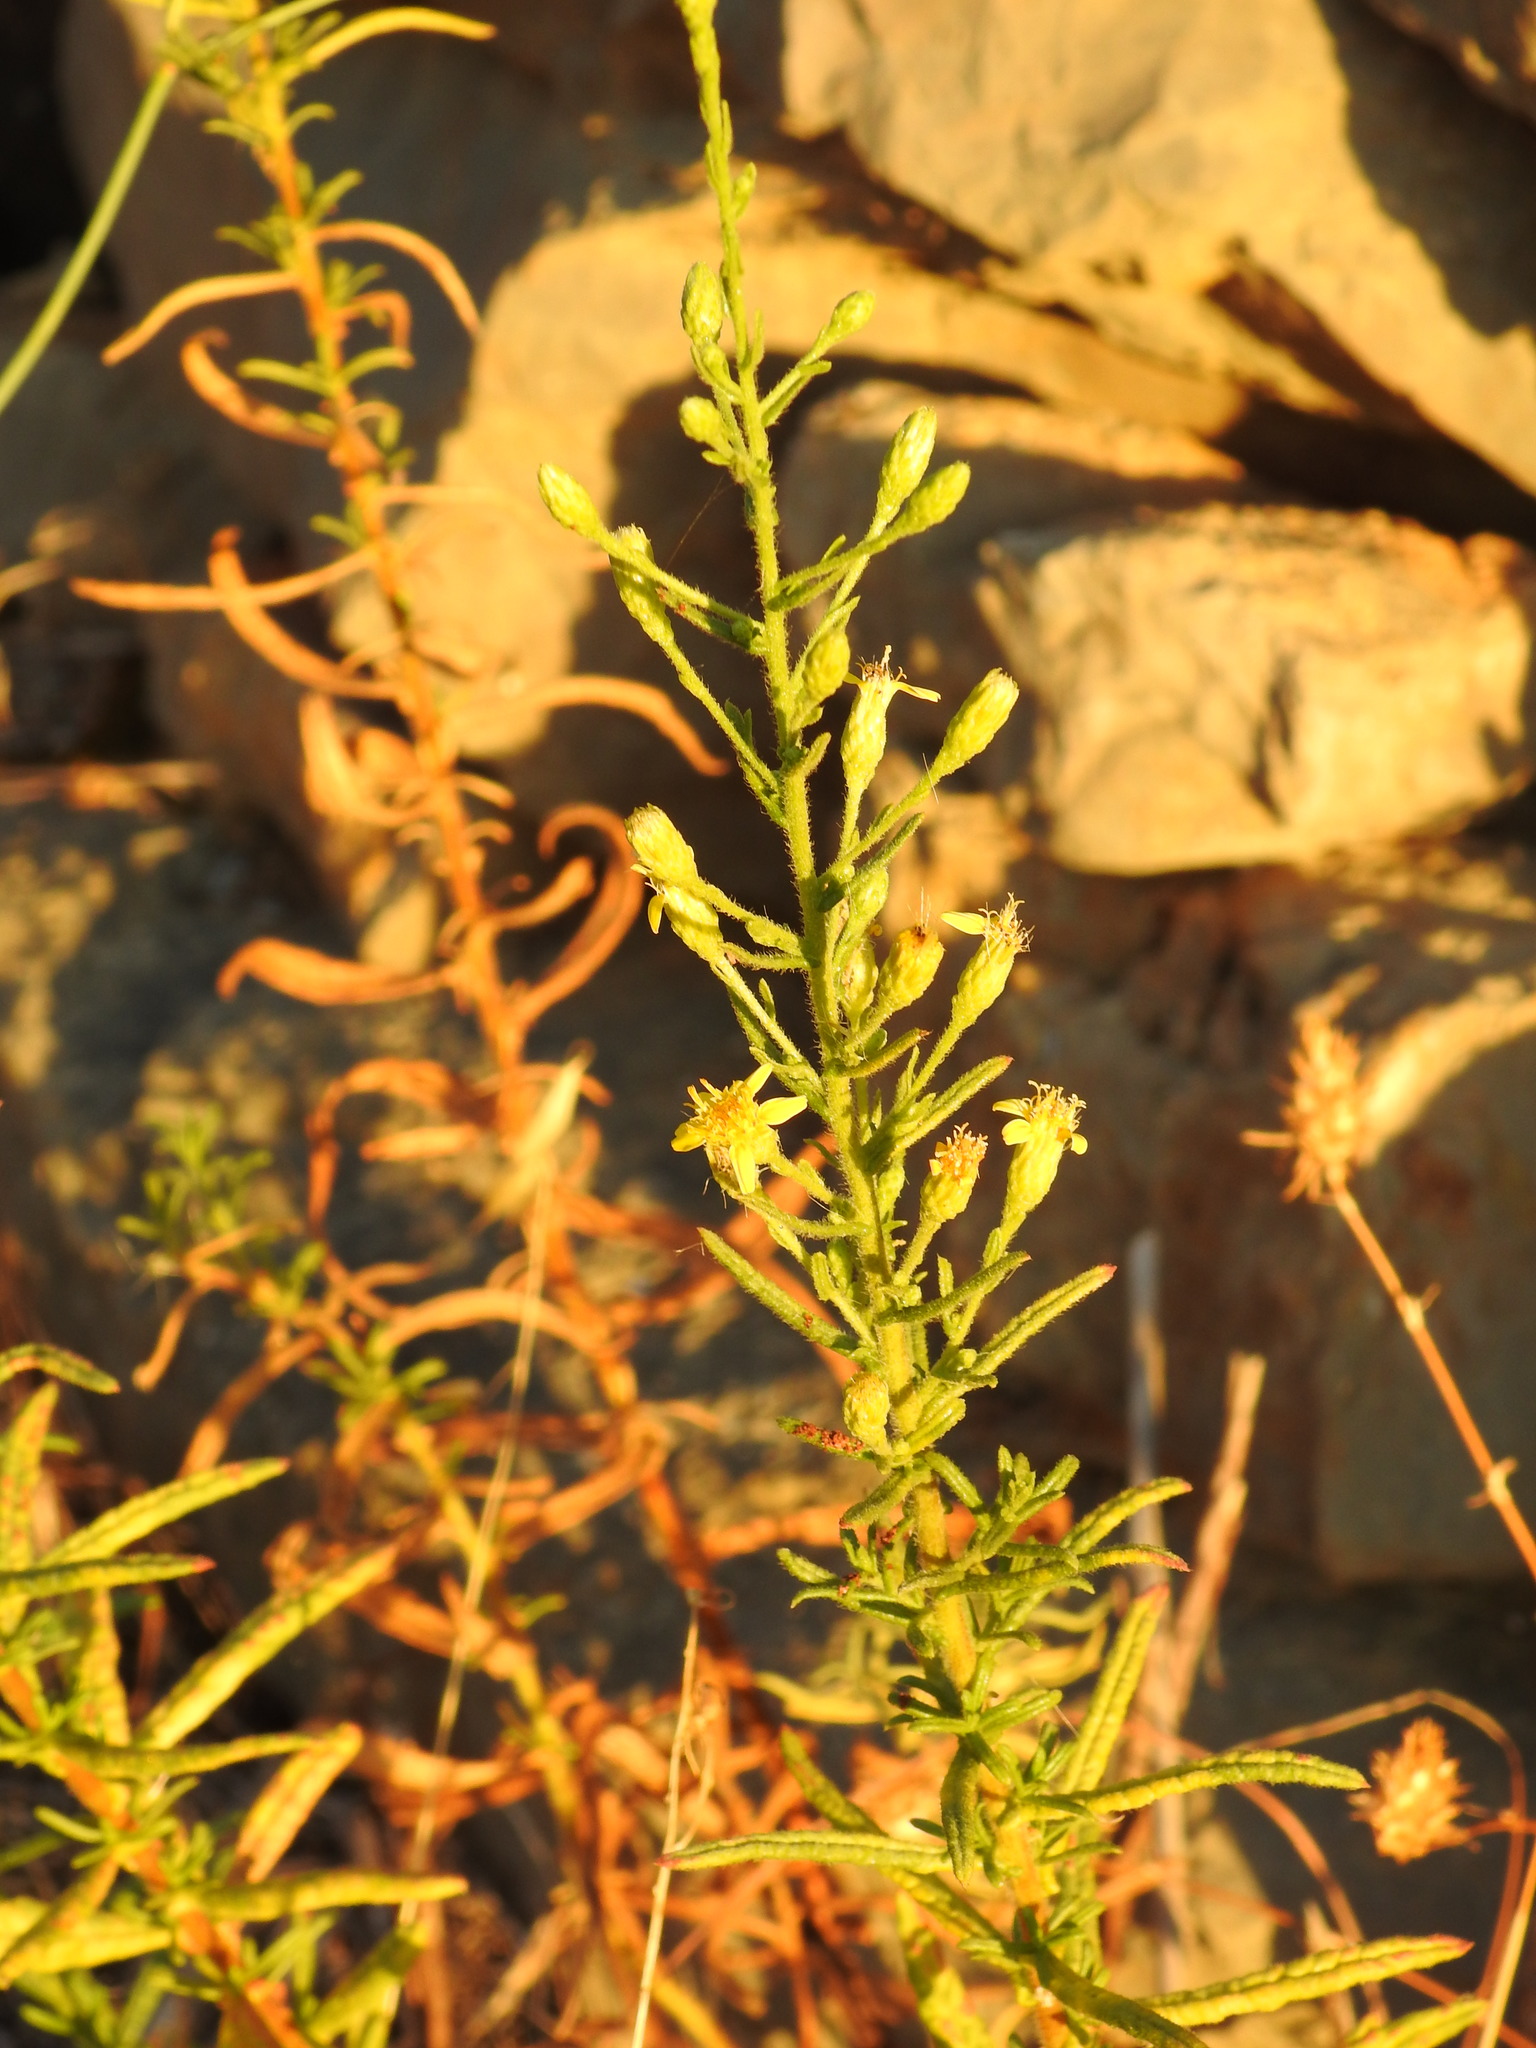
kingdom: Plantae
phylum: Tracheophyta
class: Magnoliopsida
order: Asterales
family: Asteraceae
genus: Dittrichia
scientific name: Dittrichia viscosa
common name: Woody fleabane
